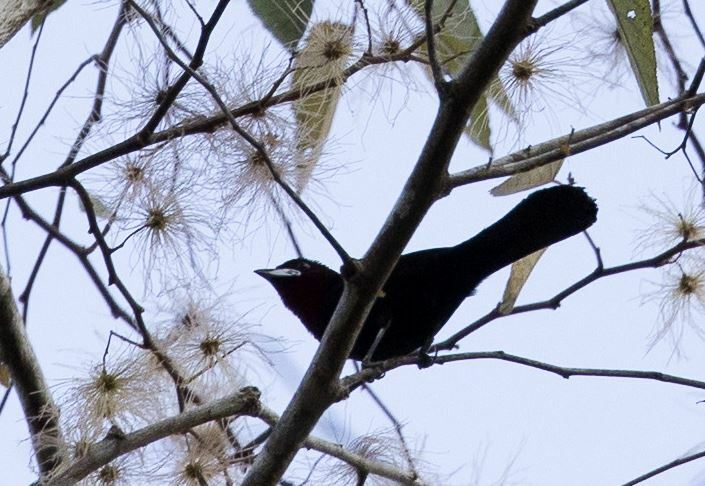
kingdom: Animalia
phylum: Chordata
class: Aves
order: Passeriformes
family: Thraupidae
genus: Ramphocelus
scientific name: Ramphocelus carbo
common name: Silver-beaked tanager
